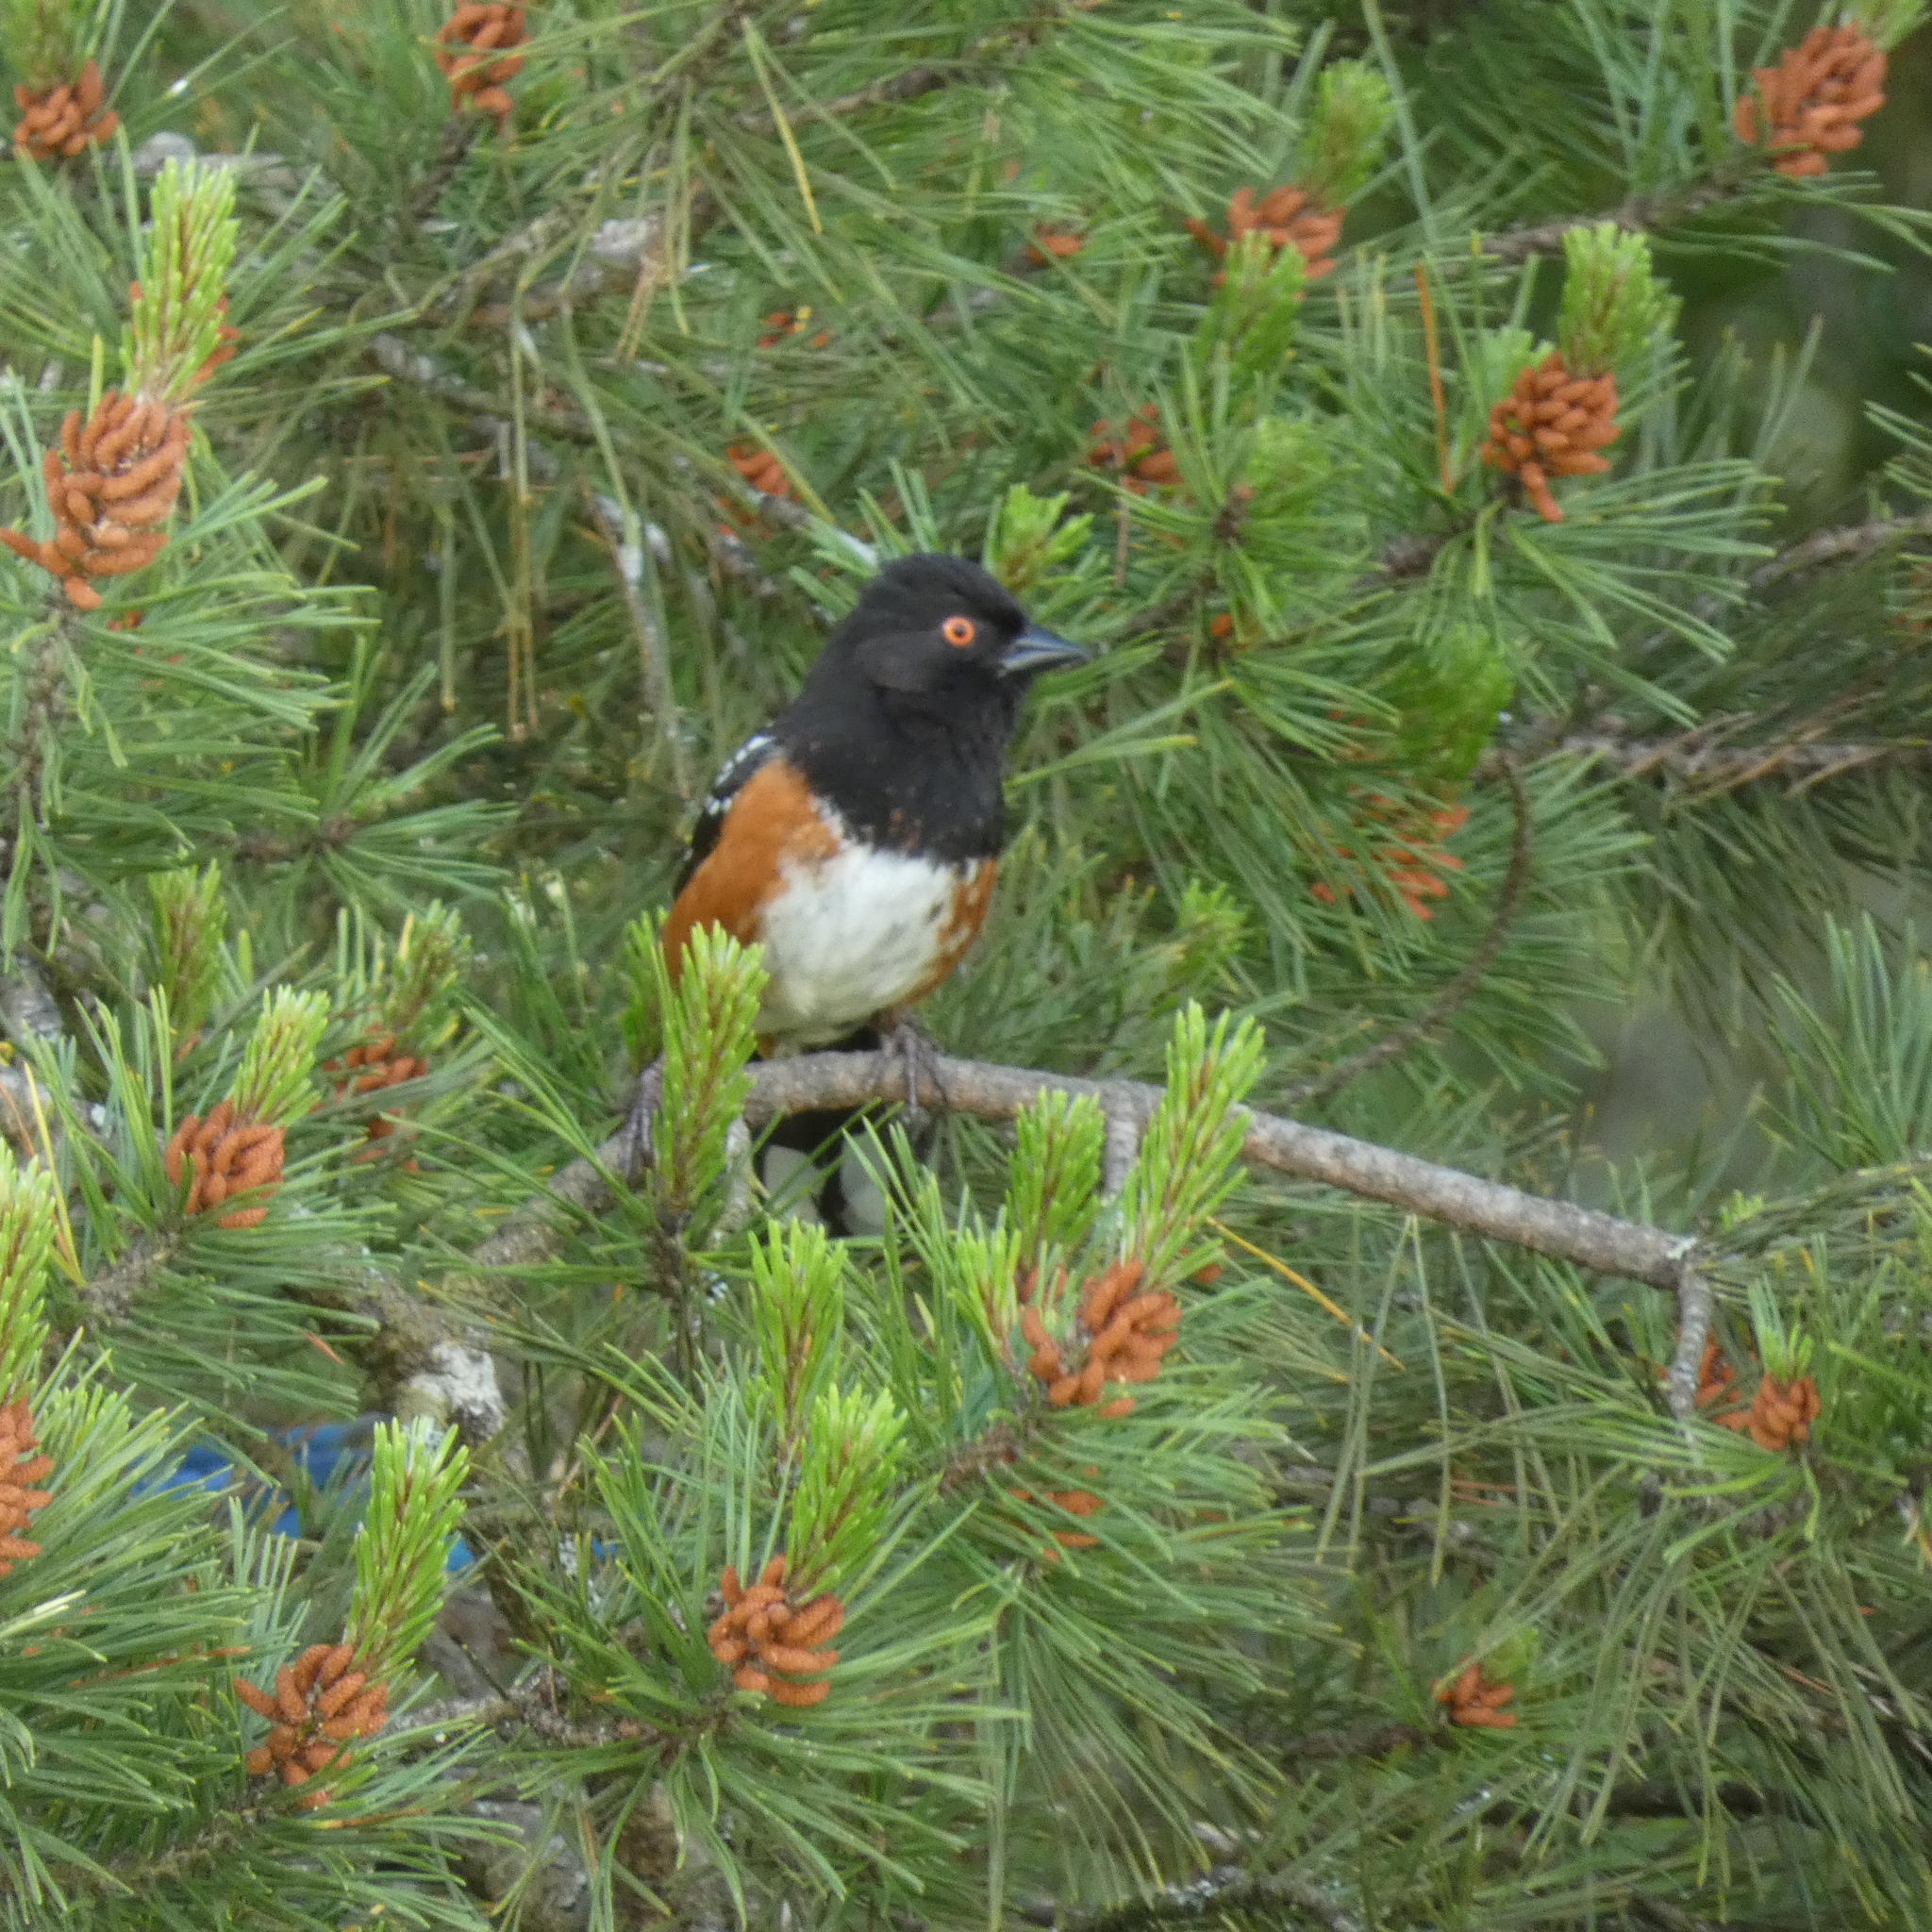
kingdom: Animalia
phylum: Chordata
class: Aves
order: Passeriformes
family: Passerellidae
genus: Pipilo
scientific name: Pipilo maculatus
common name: Spotted towhee
